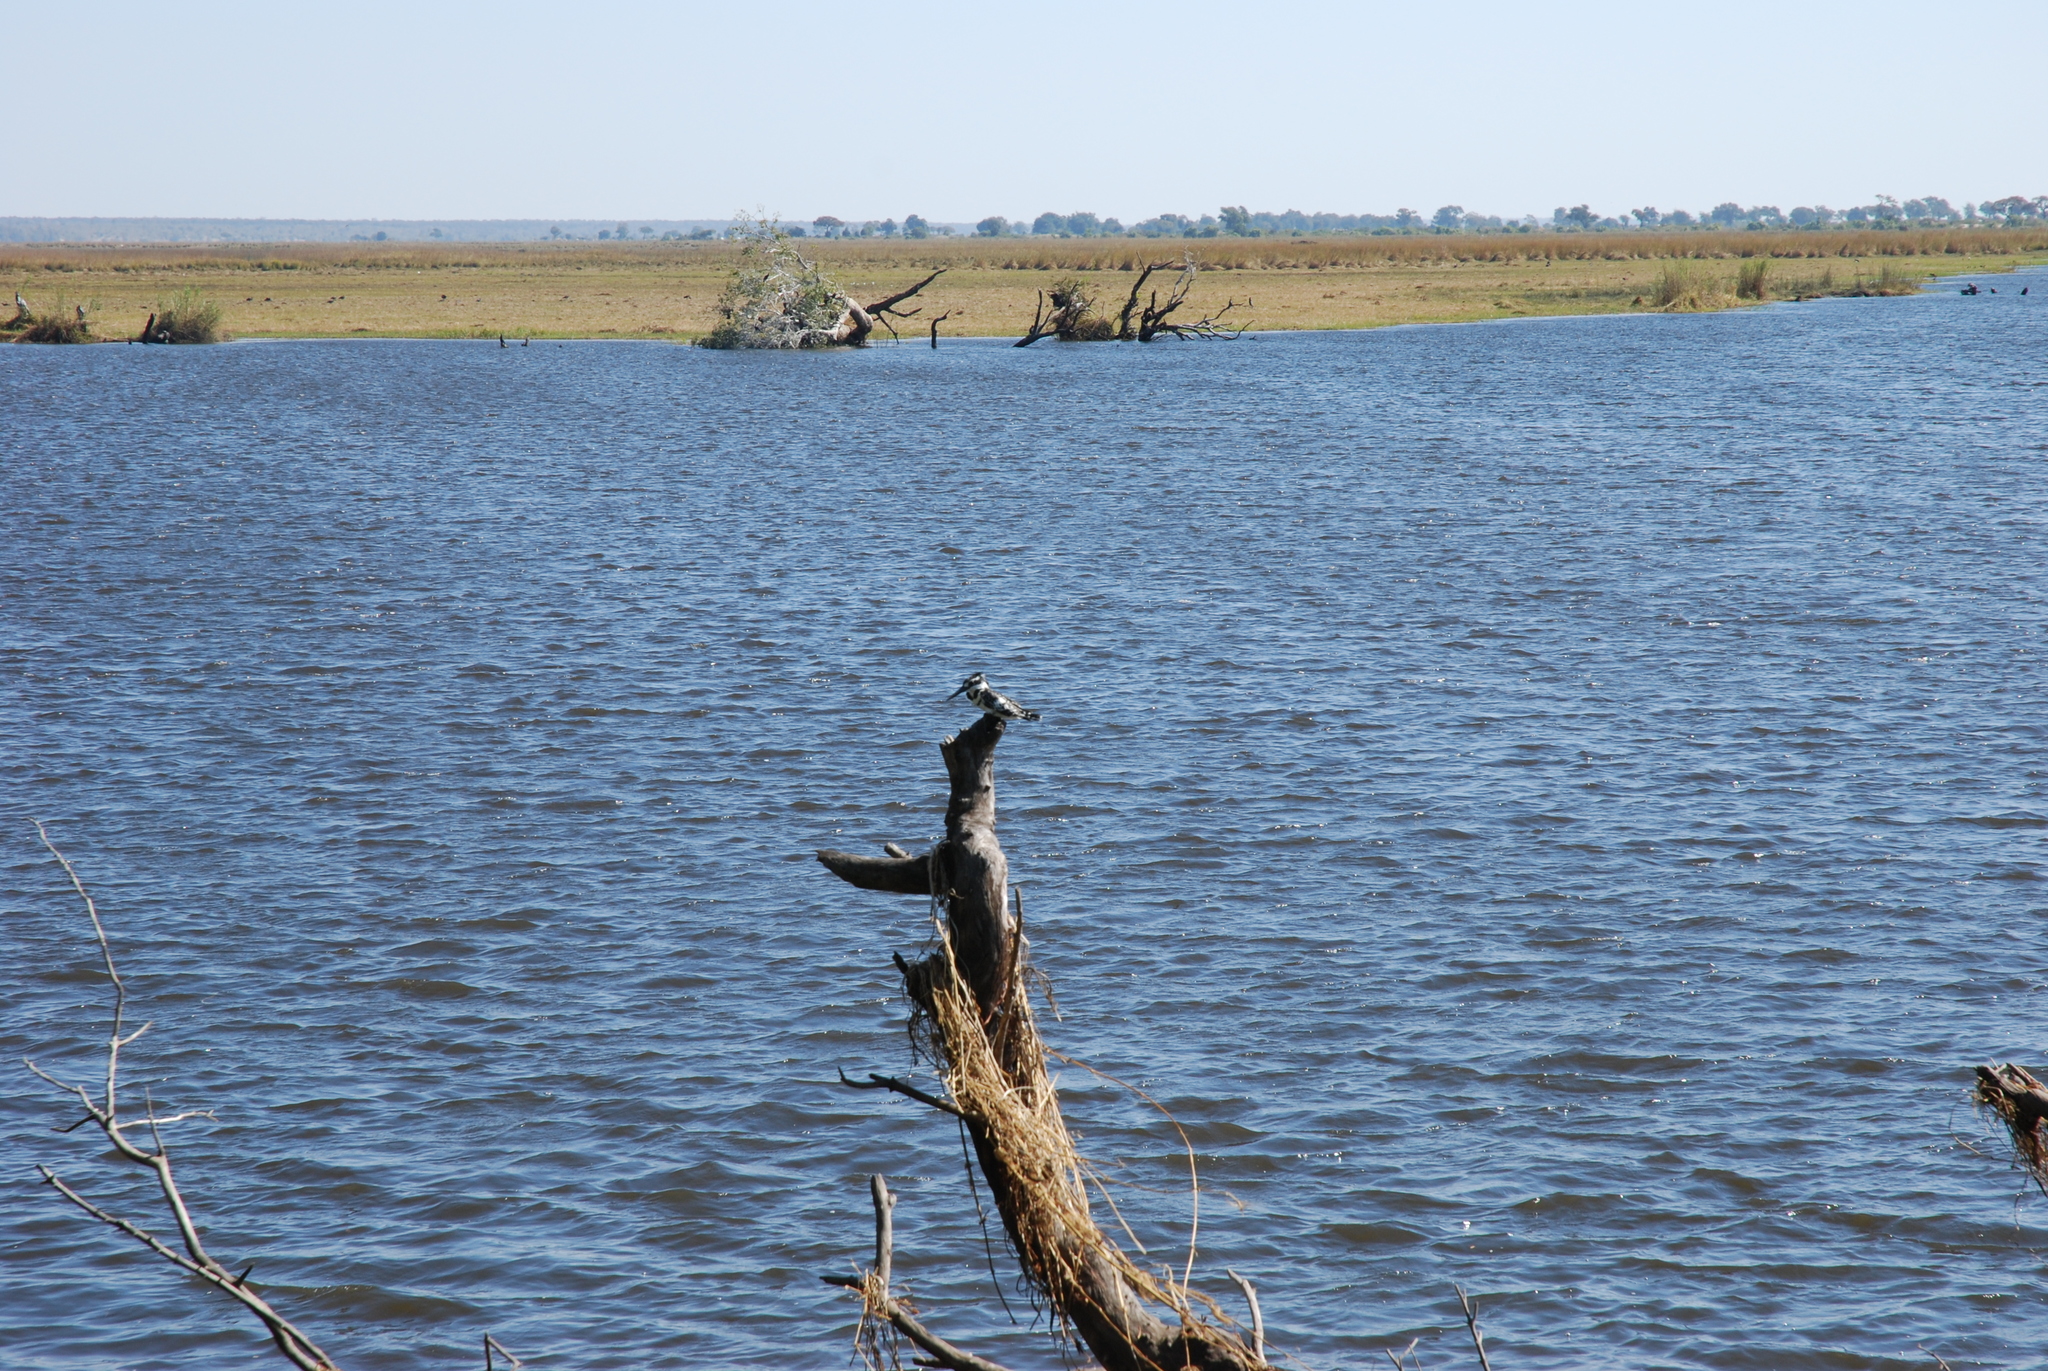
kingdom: Animalia
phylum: Chordata
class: Aves
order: Coraciiformes
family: Alcedinidae
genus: Ceryle
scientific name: Ceryle rudis
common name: Pied kingfisher
